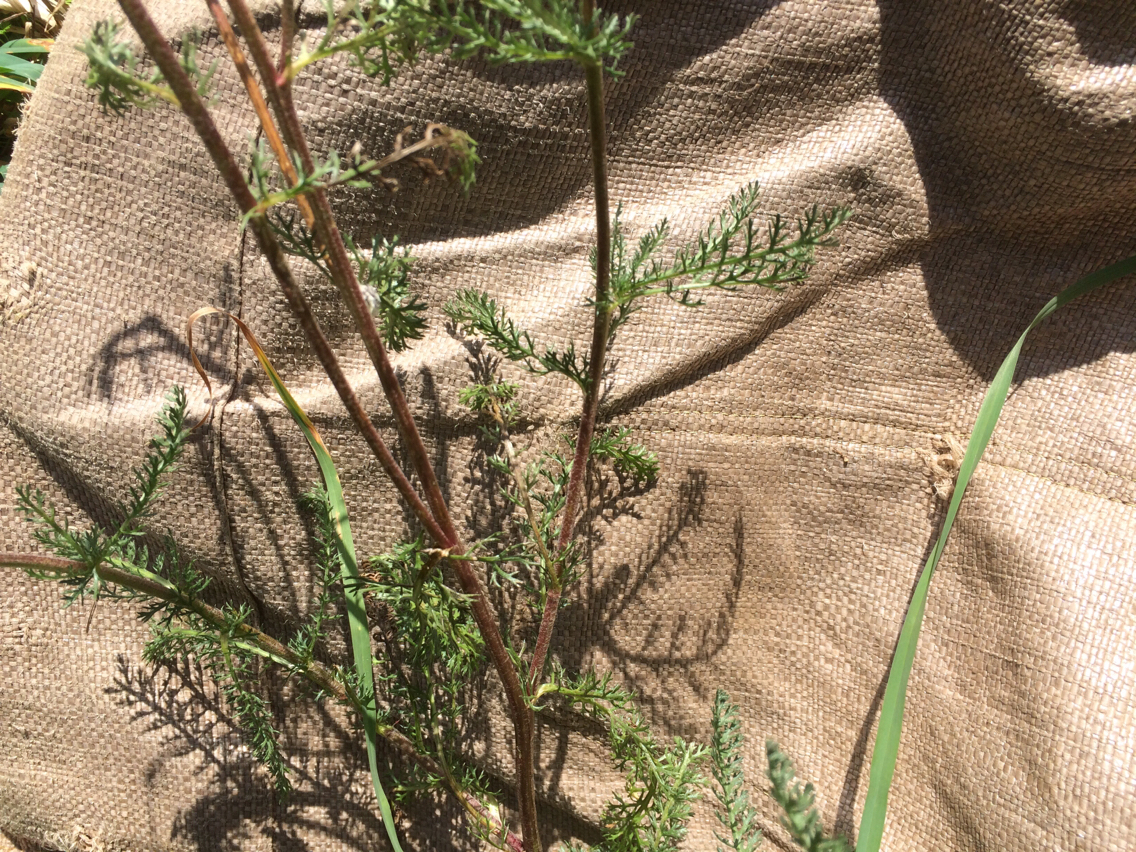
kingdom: Plantae
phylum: Tracheophyta
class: Magnoliopsida
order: Asterales
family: Asteraceae
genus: Achillea
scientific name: Achillea millefolium
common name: Yarrow
